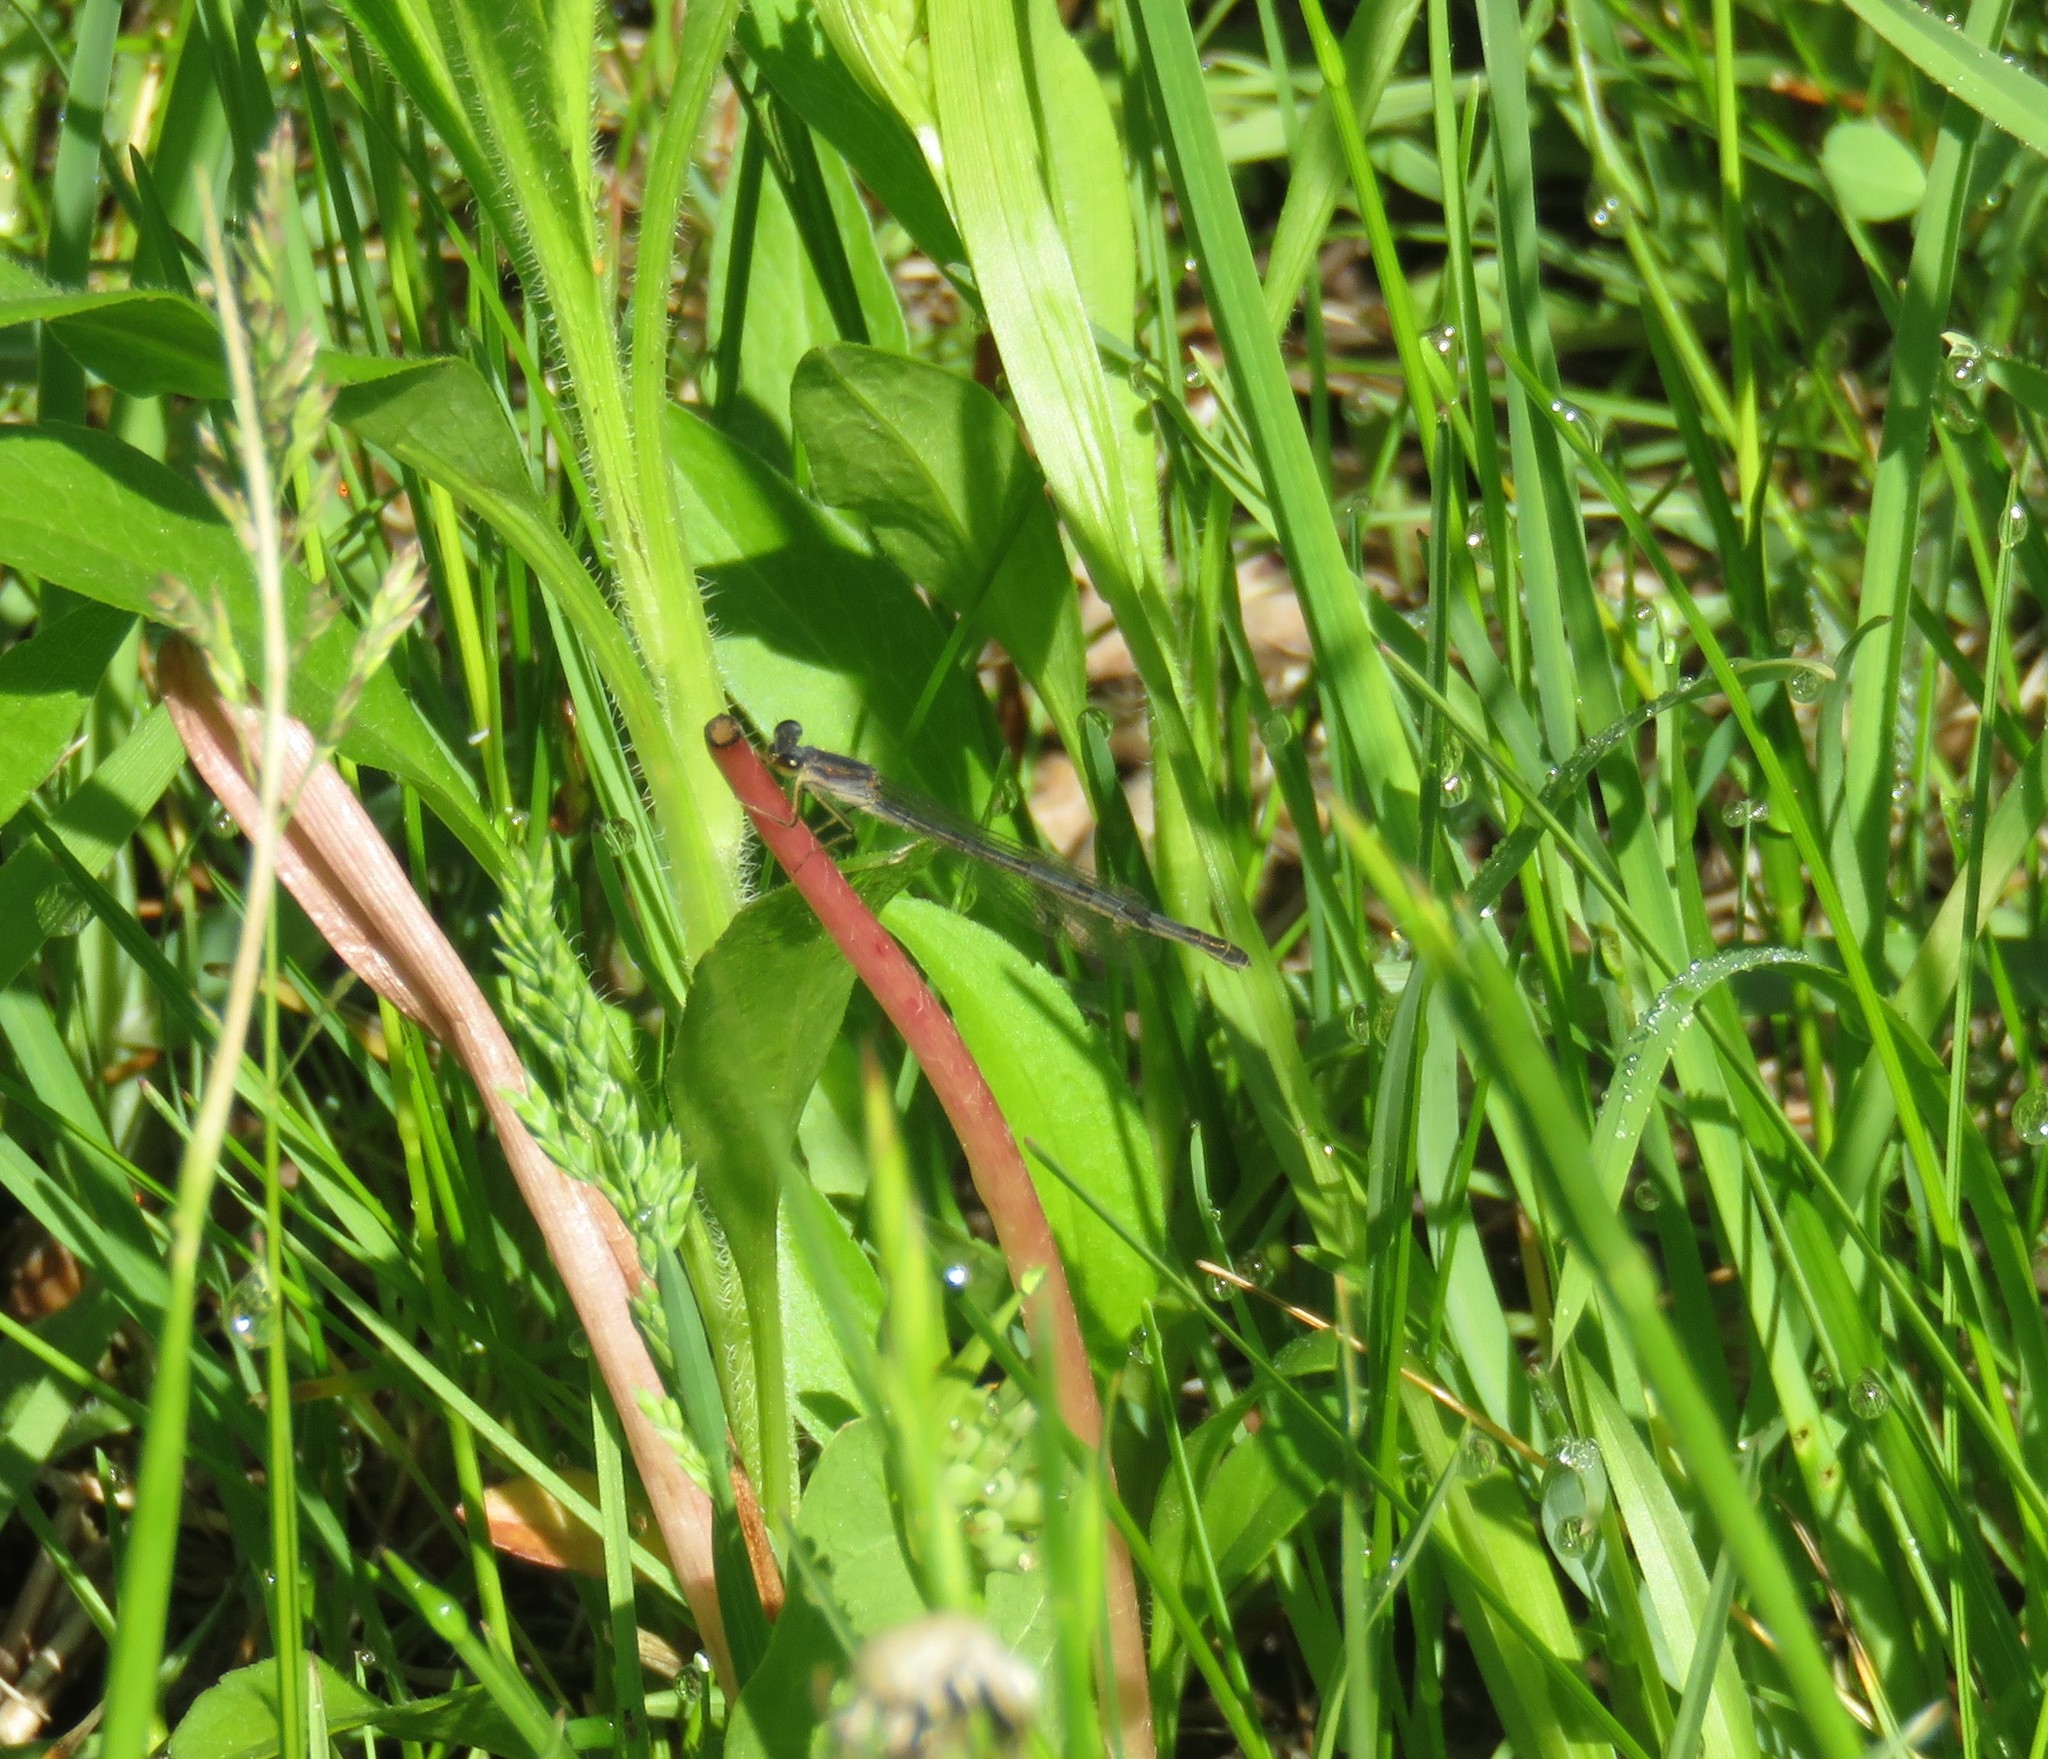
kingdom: Animalia
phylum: Arthropoda
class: Insecta
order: Odonata
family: Coenagrionidae
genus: Ischnura
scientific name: Ischnura posita
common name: Fragile forktail
